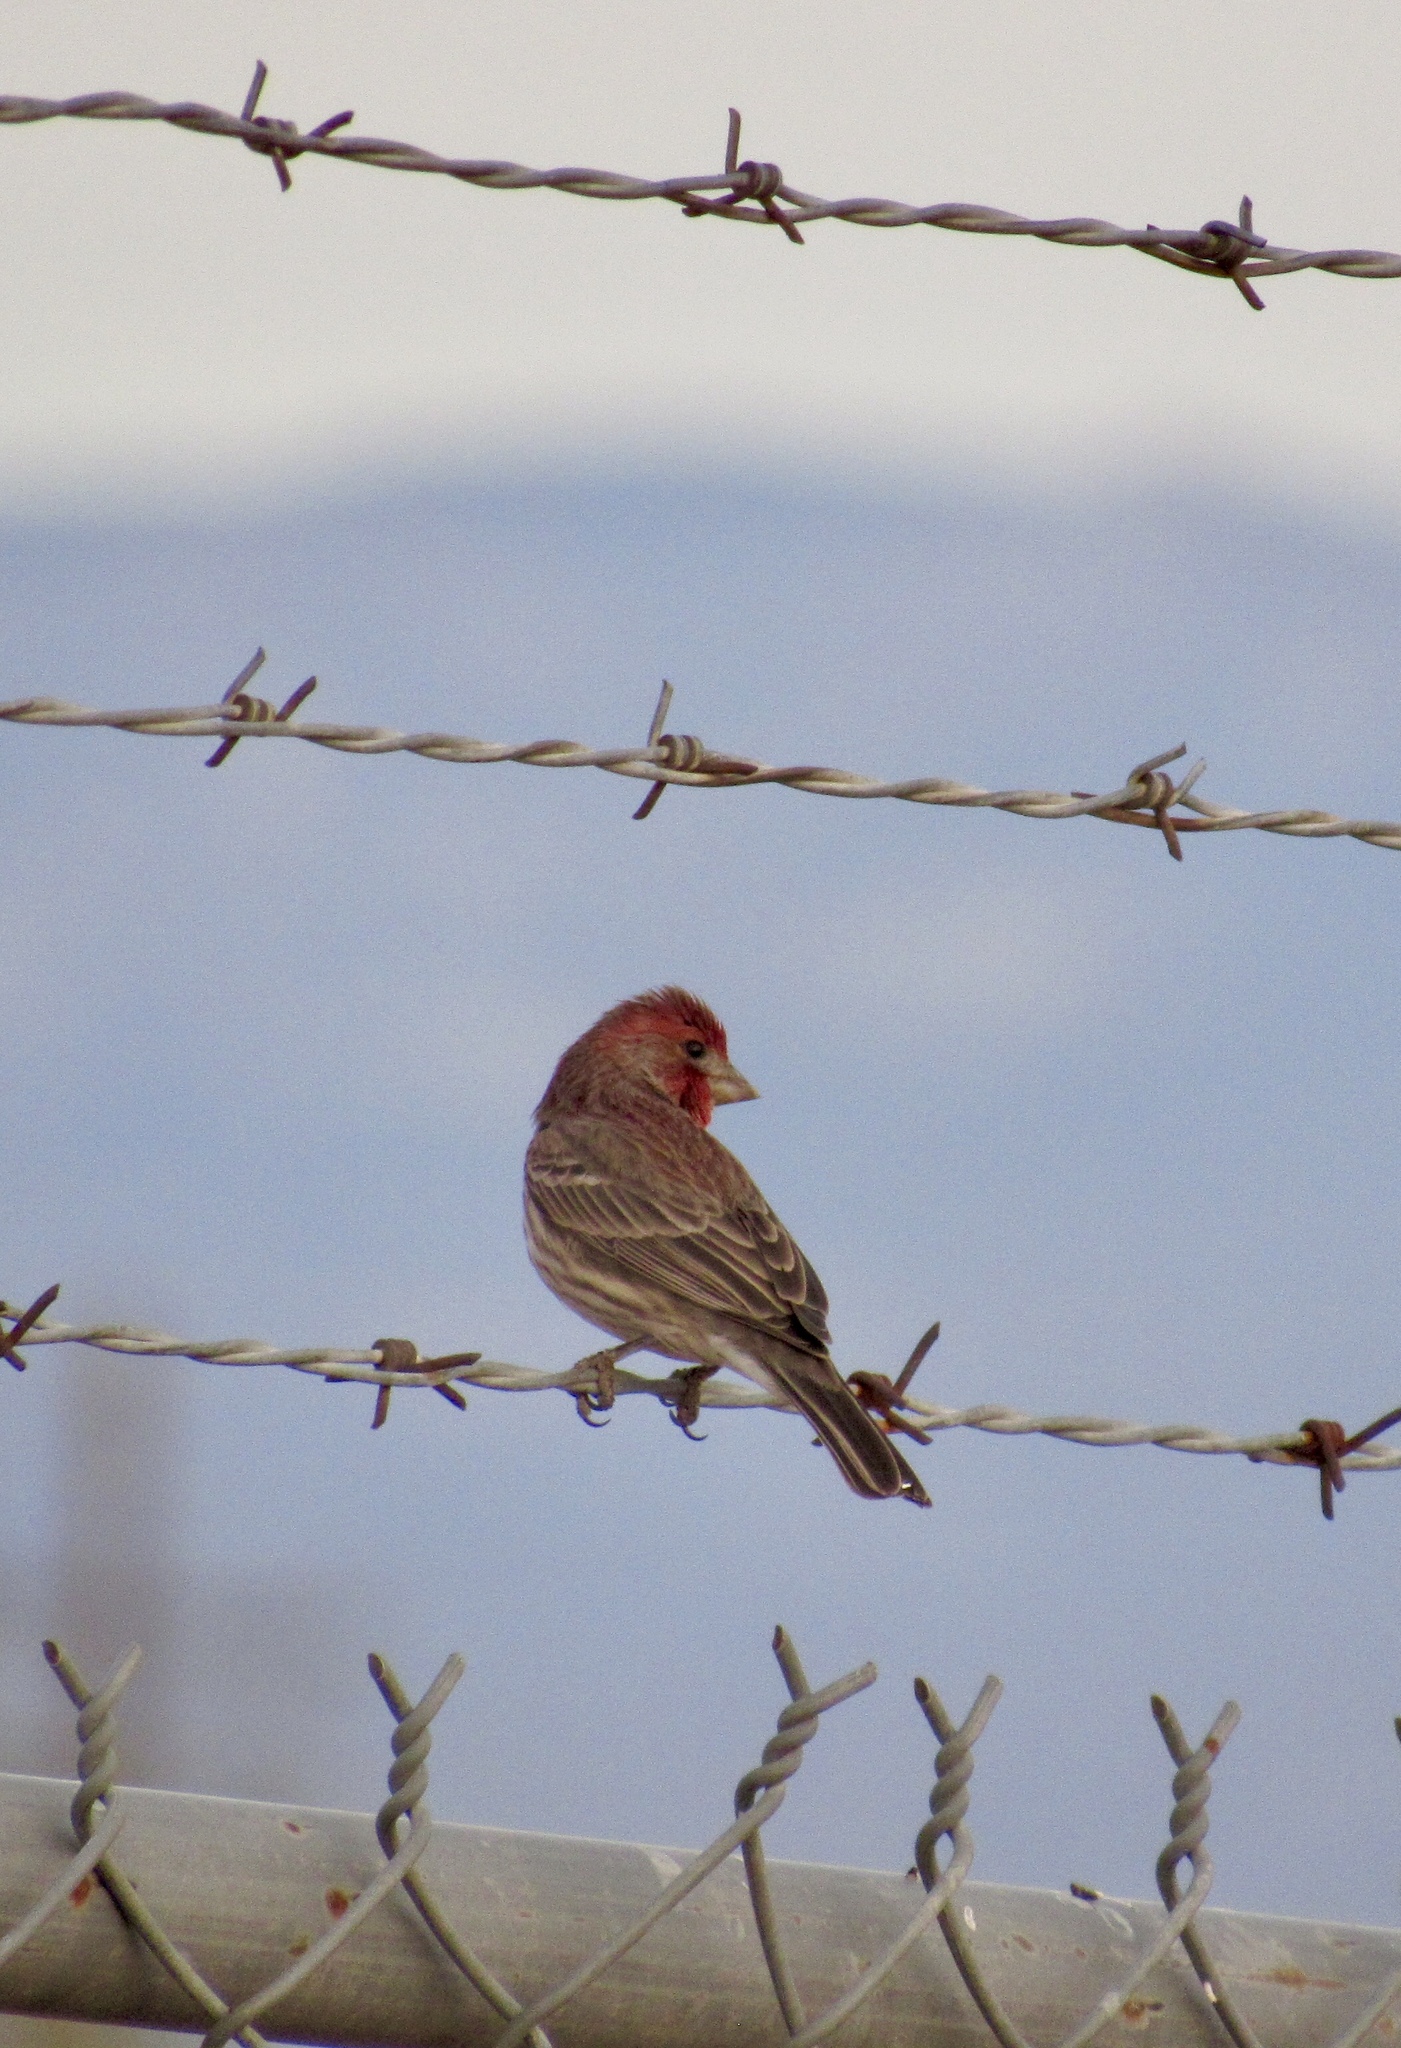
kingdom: Animalia
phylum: Chordata
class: Aves
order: Passeriformes
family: Fringillidae
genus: Haemorhous
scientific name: Haemorhous mexicanus
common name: House finch
